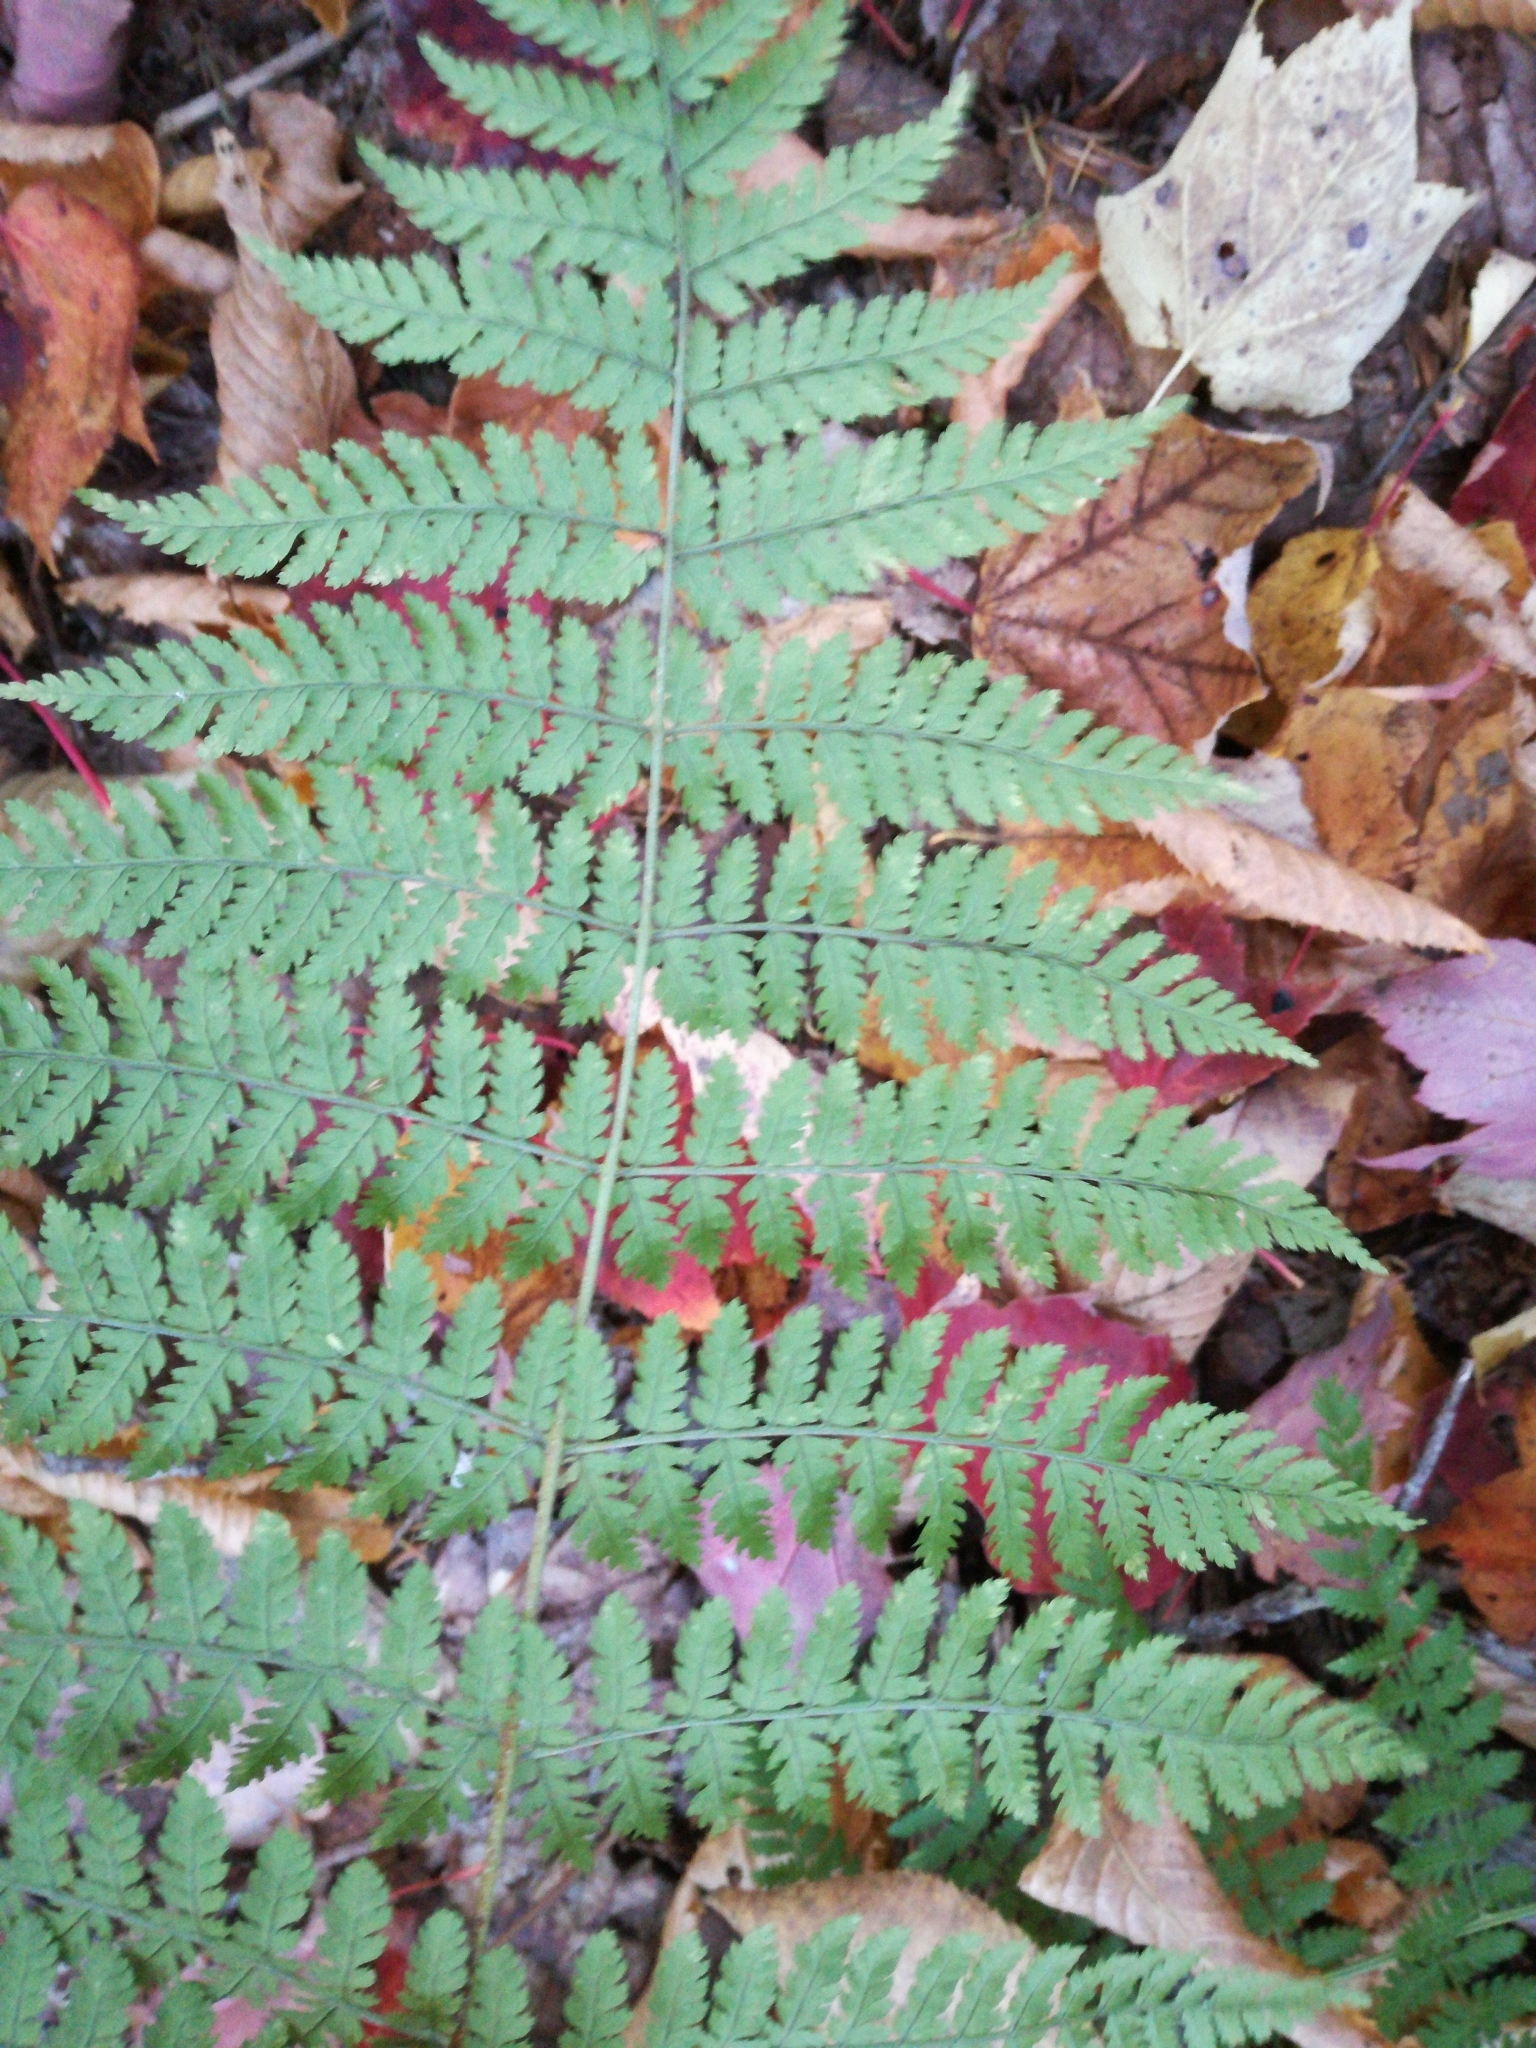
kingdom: Plantae
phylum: Tracheophyta
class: Polypodiopsida
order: Polypodiales
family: Dryopteridaceae
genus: Dryopteris
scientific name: Dryopteris intermedia
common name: Evergreen wood fern
